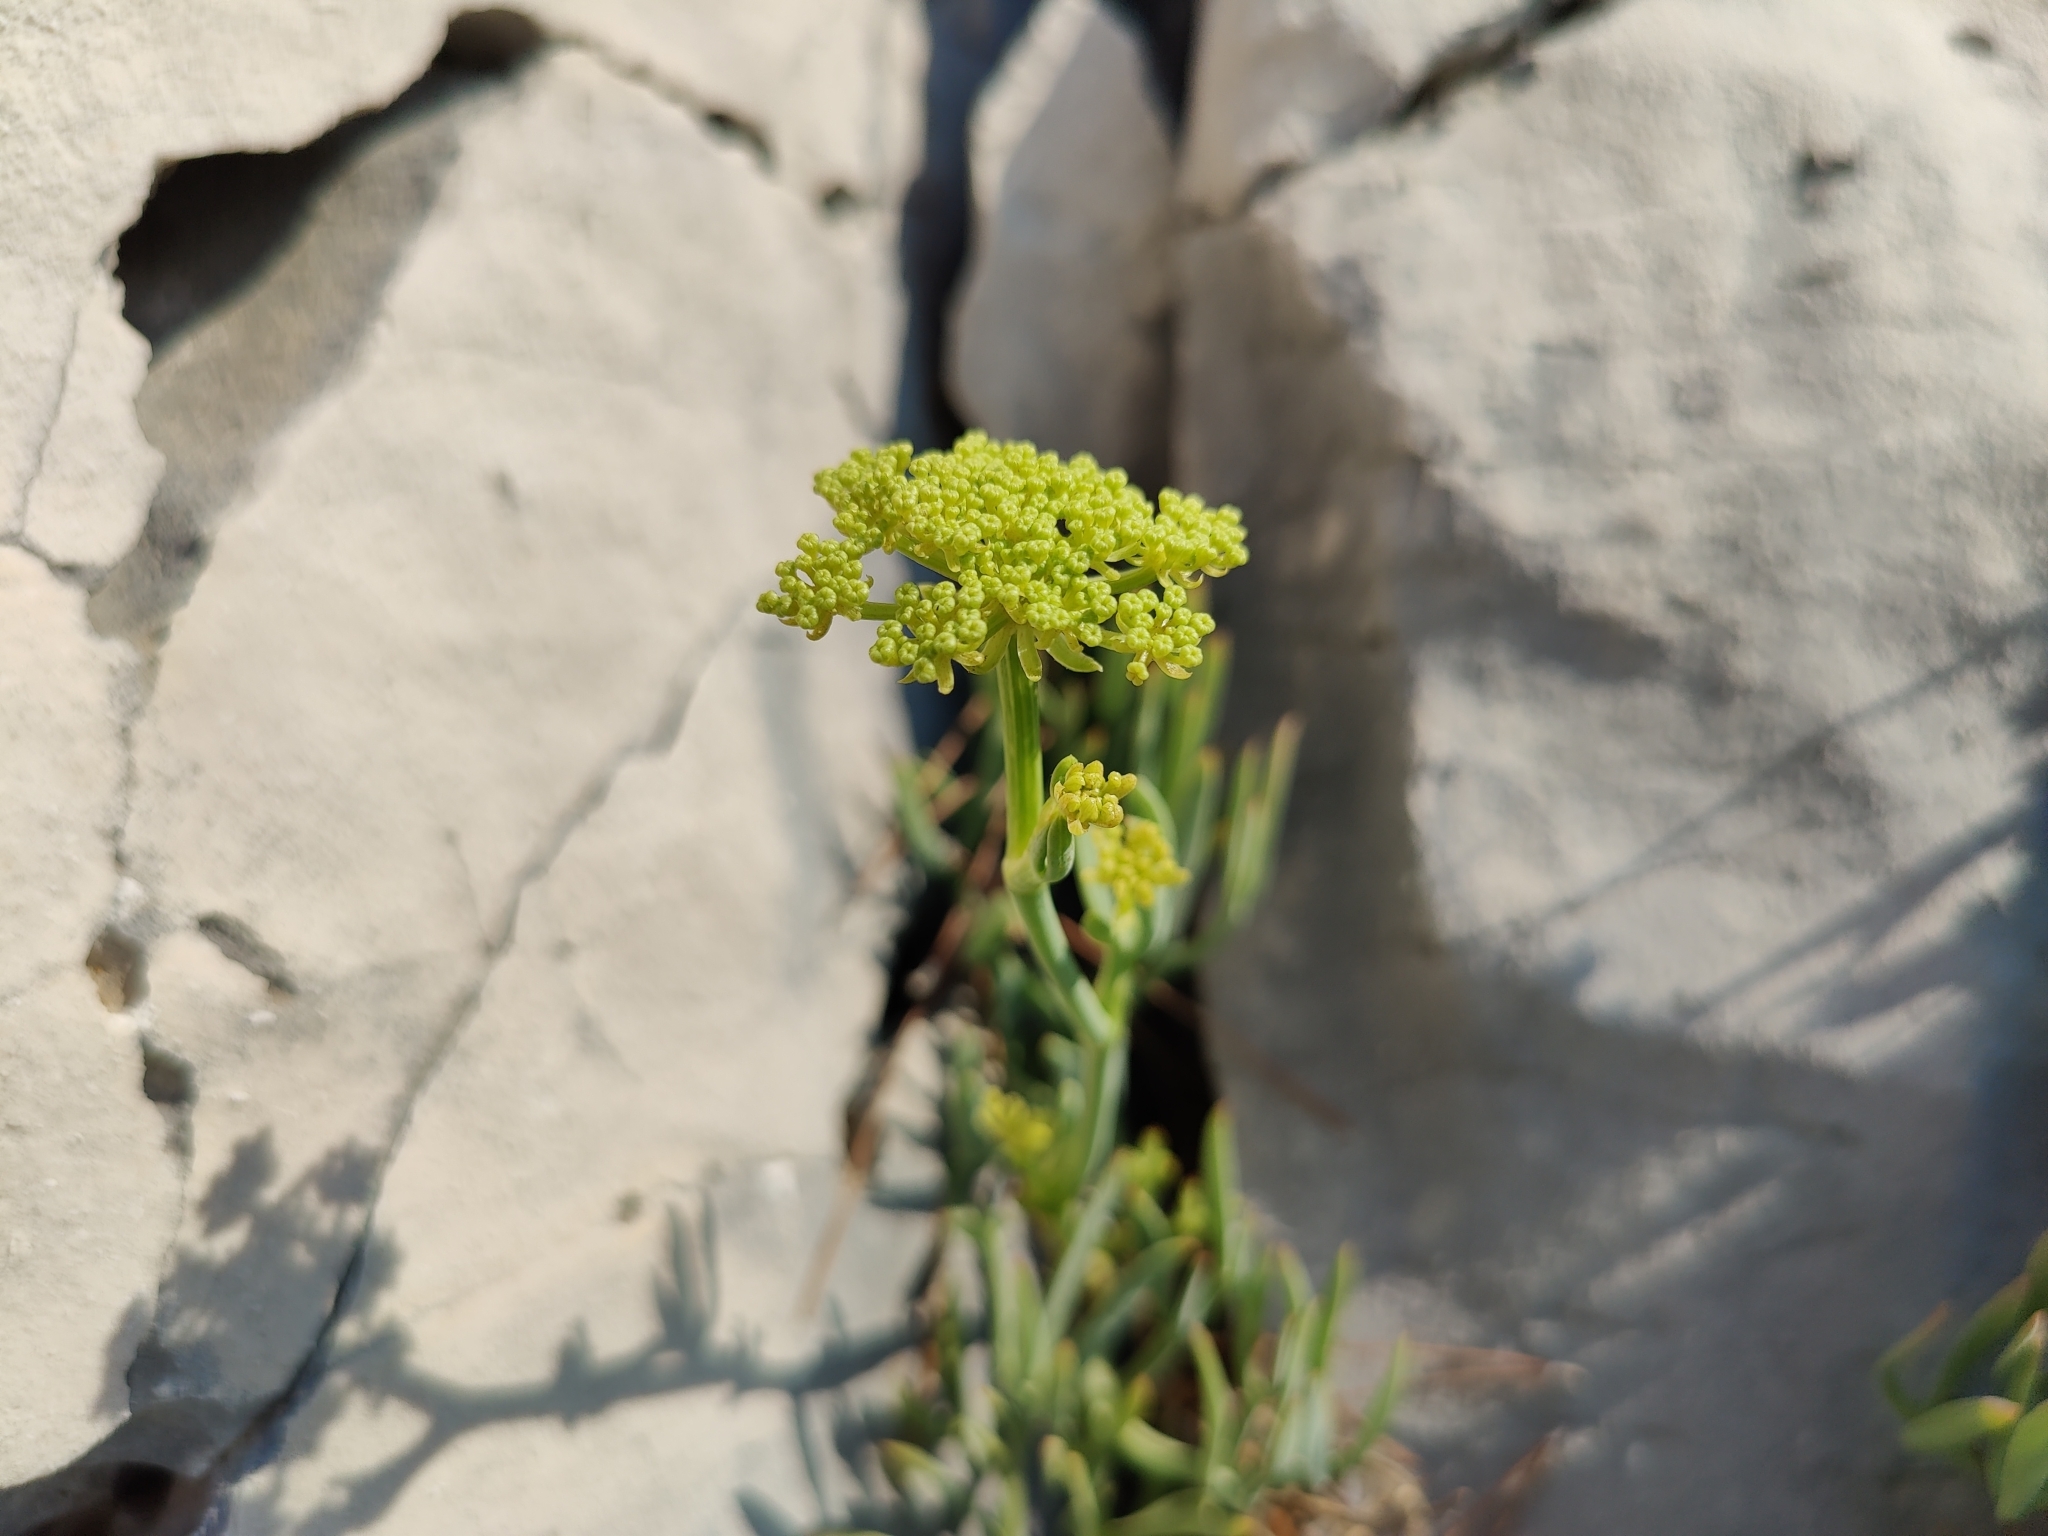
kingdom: Plantae
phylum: Tracheophyta
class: Magnoliopsida
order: Apiales
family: Apiaceae
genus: Crithmum
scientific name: Crithmum maritimum
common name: Rock samphire
